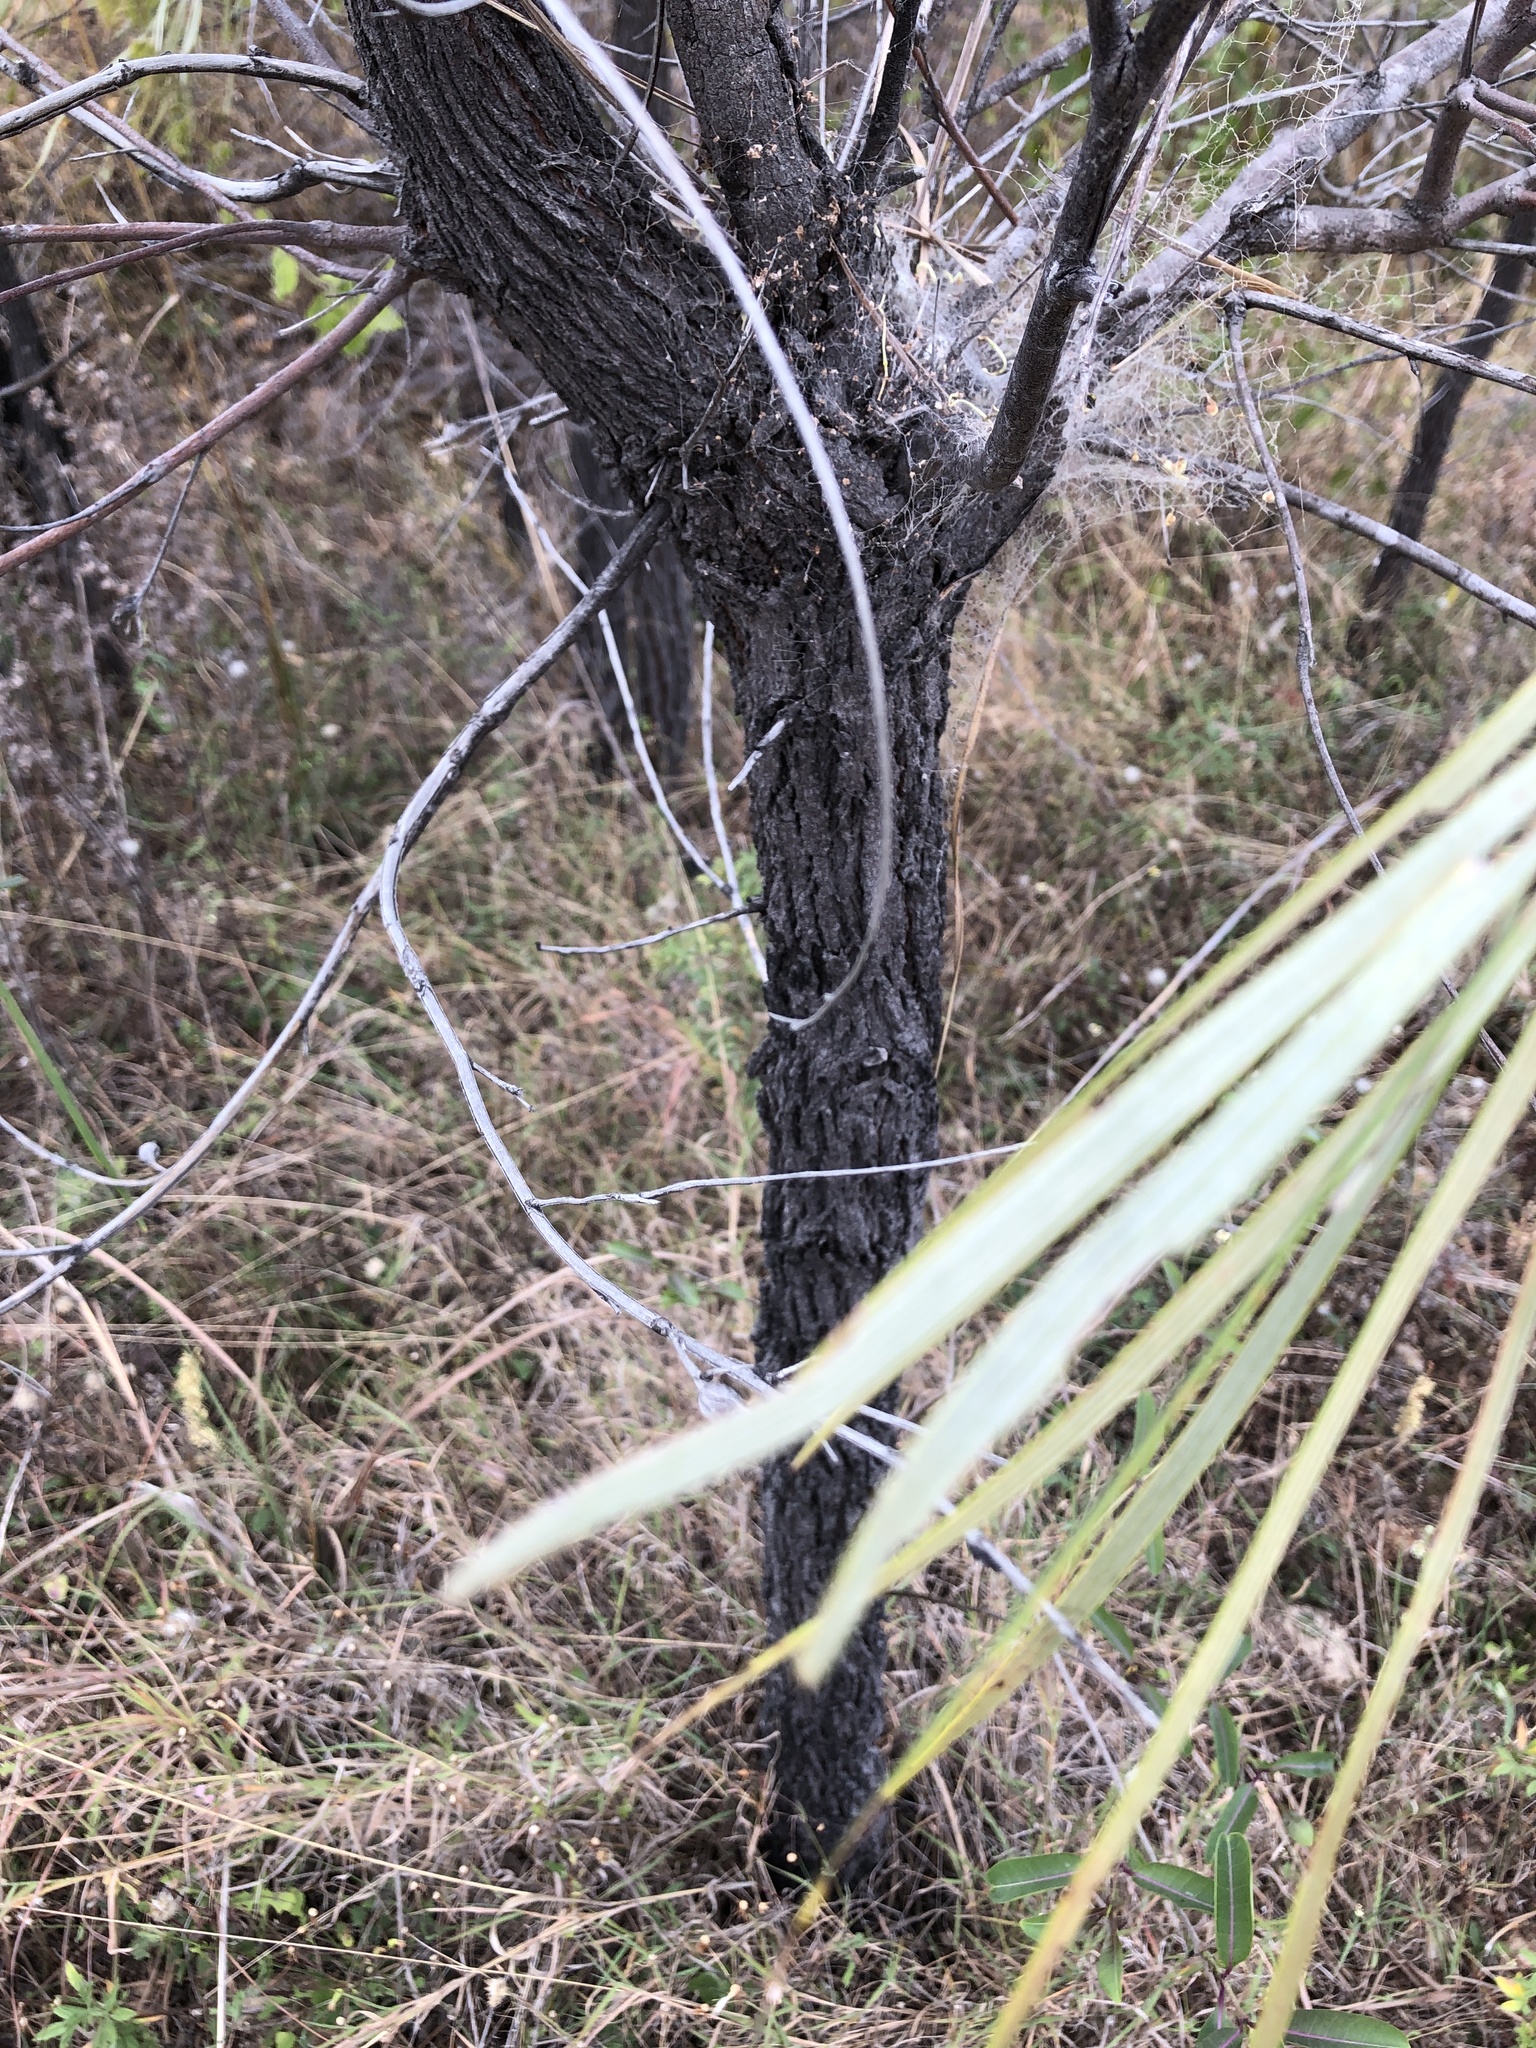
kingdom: Plantae
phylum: Tracheophyta
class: Magnoliopsida
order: Proteales
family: Proteaceae
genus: Grevillea
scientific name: Grevillea parallela
